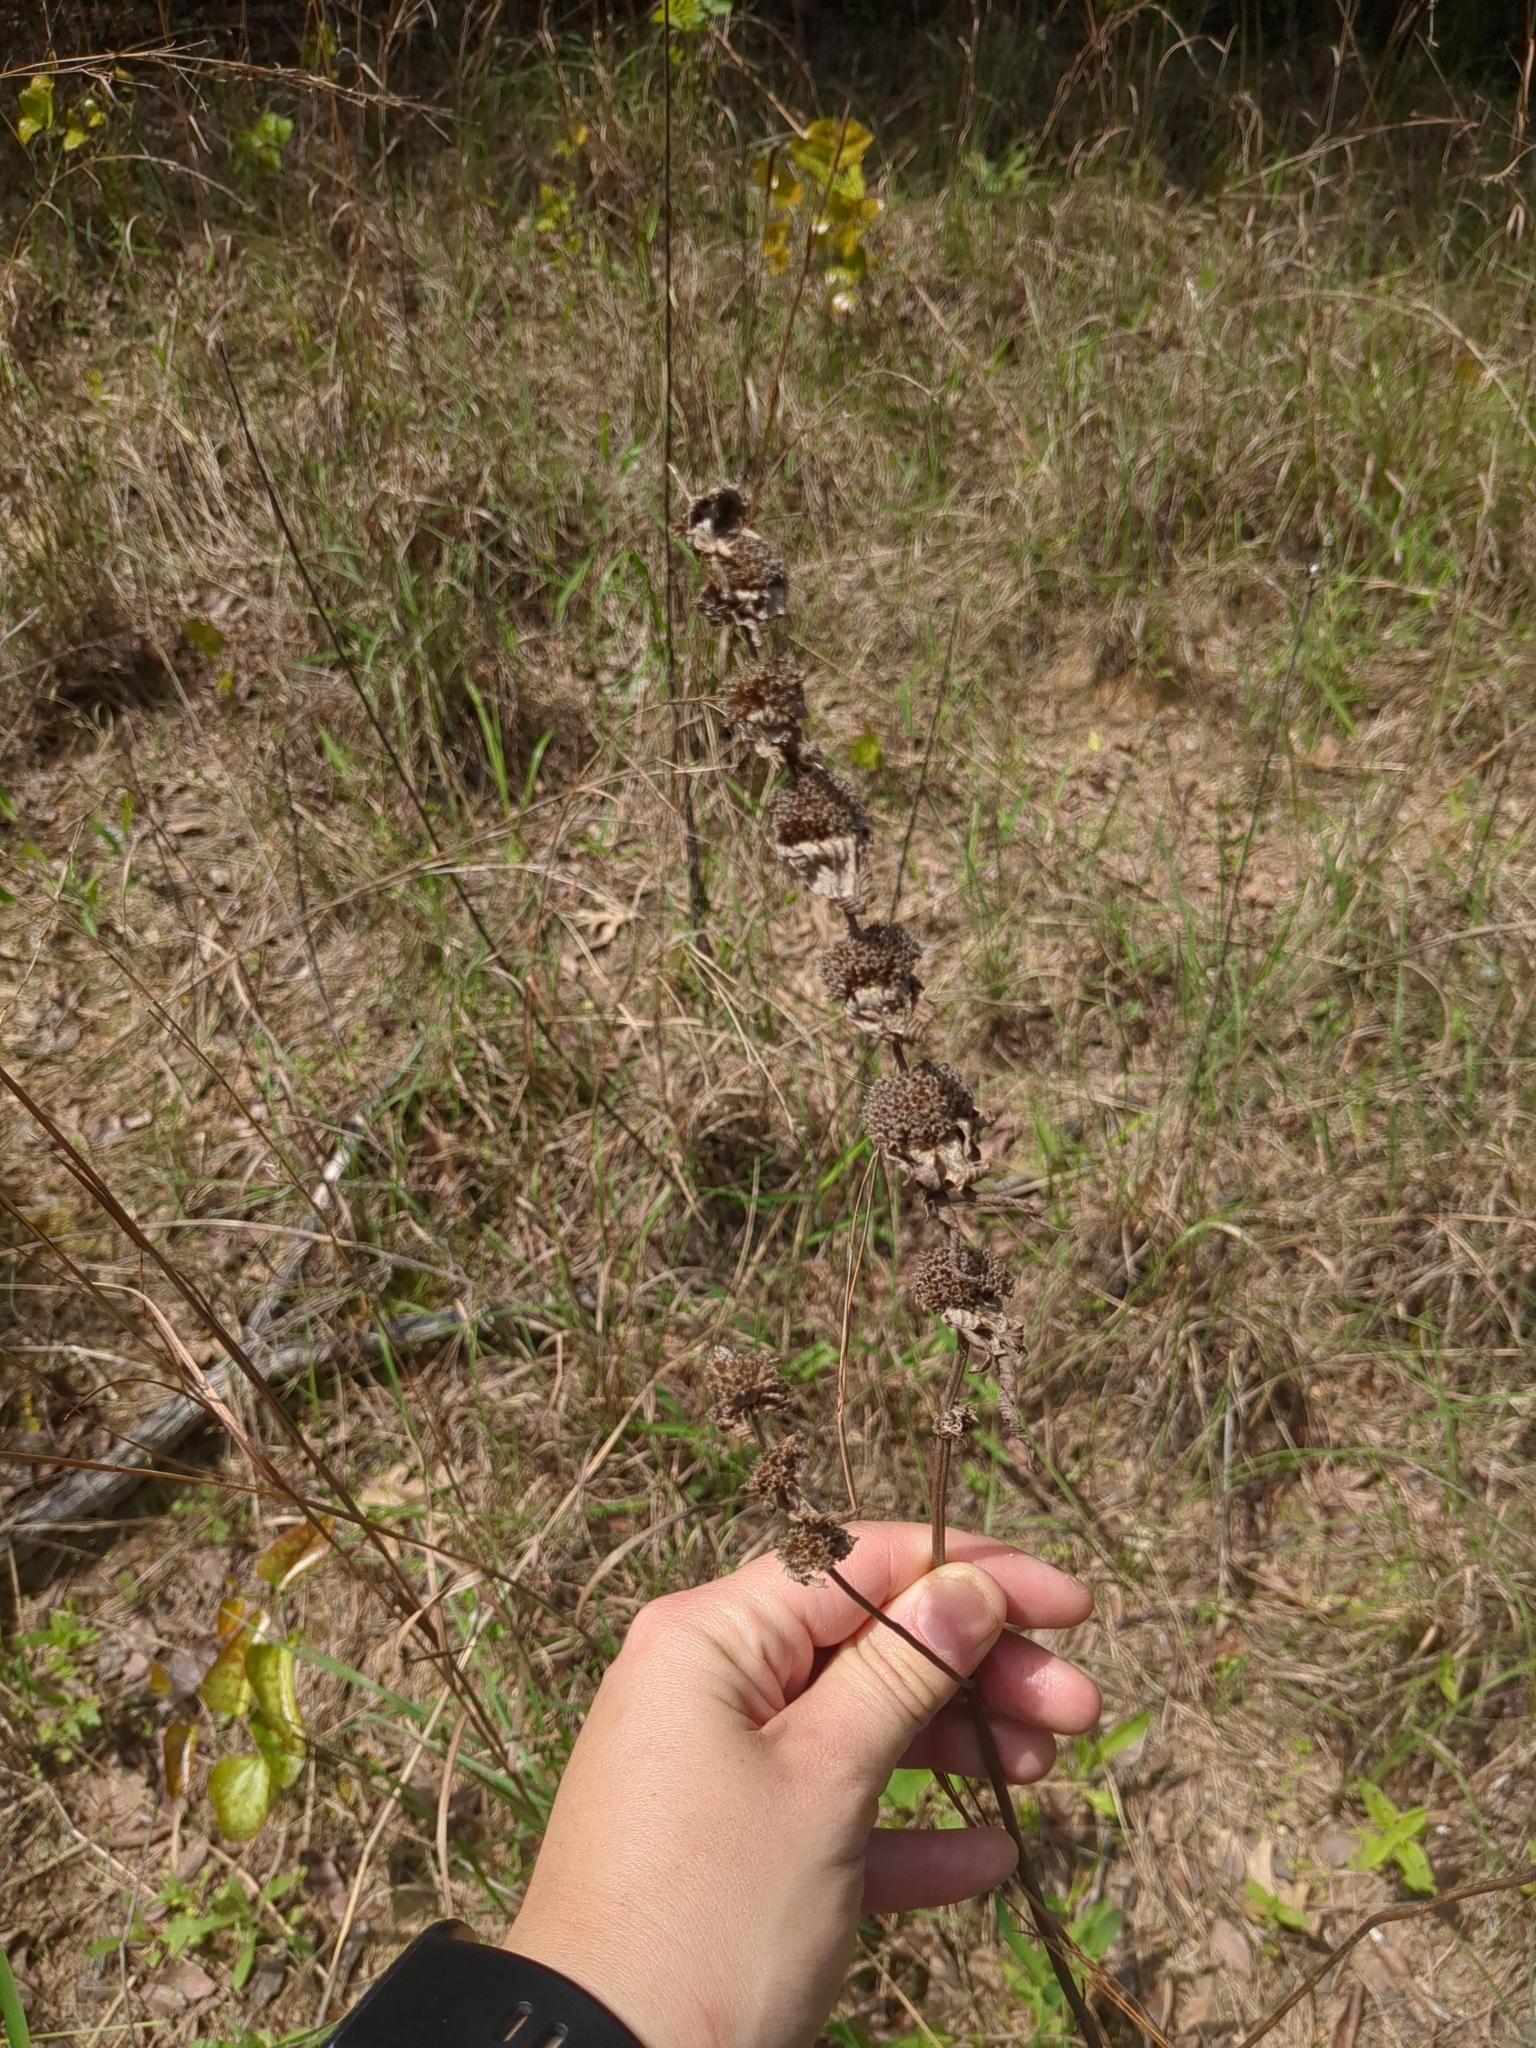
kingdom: Plantae
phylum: Tracheophyta
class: Magnoliopsida
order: Lamiales
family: Lamiaceae
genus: Monarda
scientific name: Monarda punctata
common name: Dotted monarda
